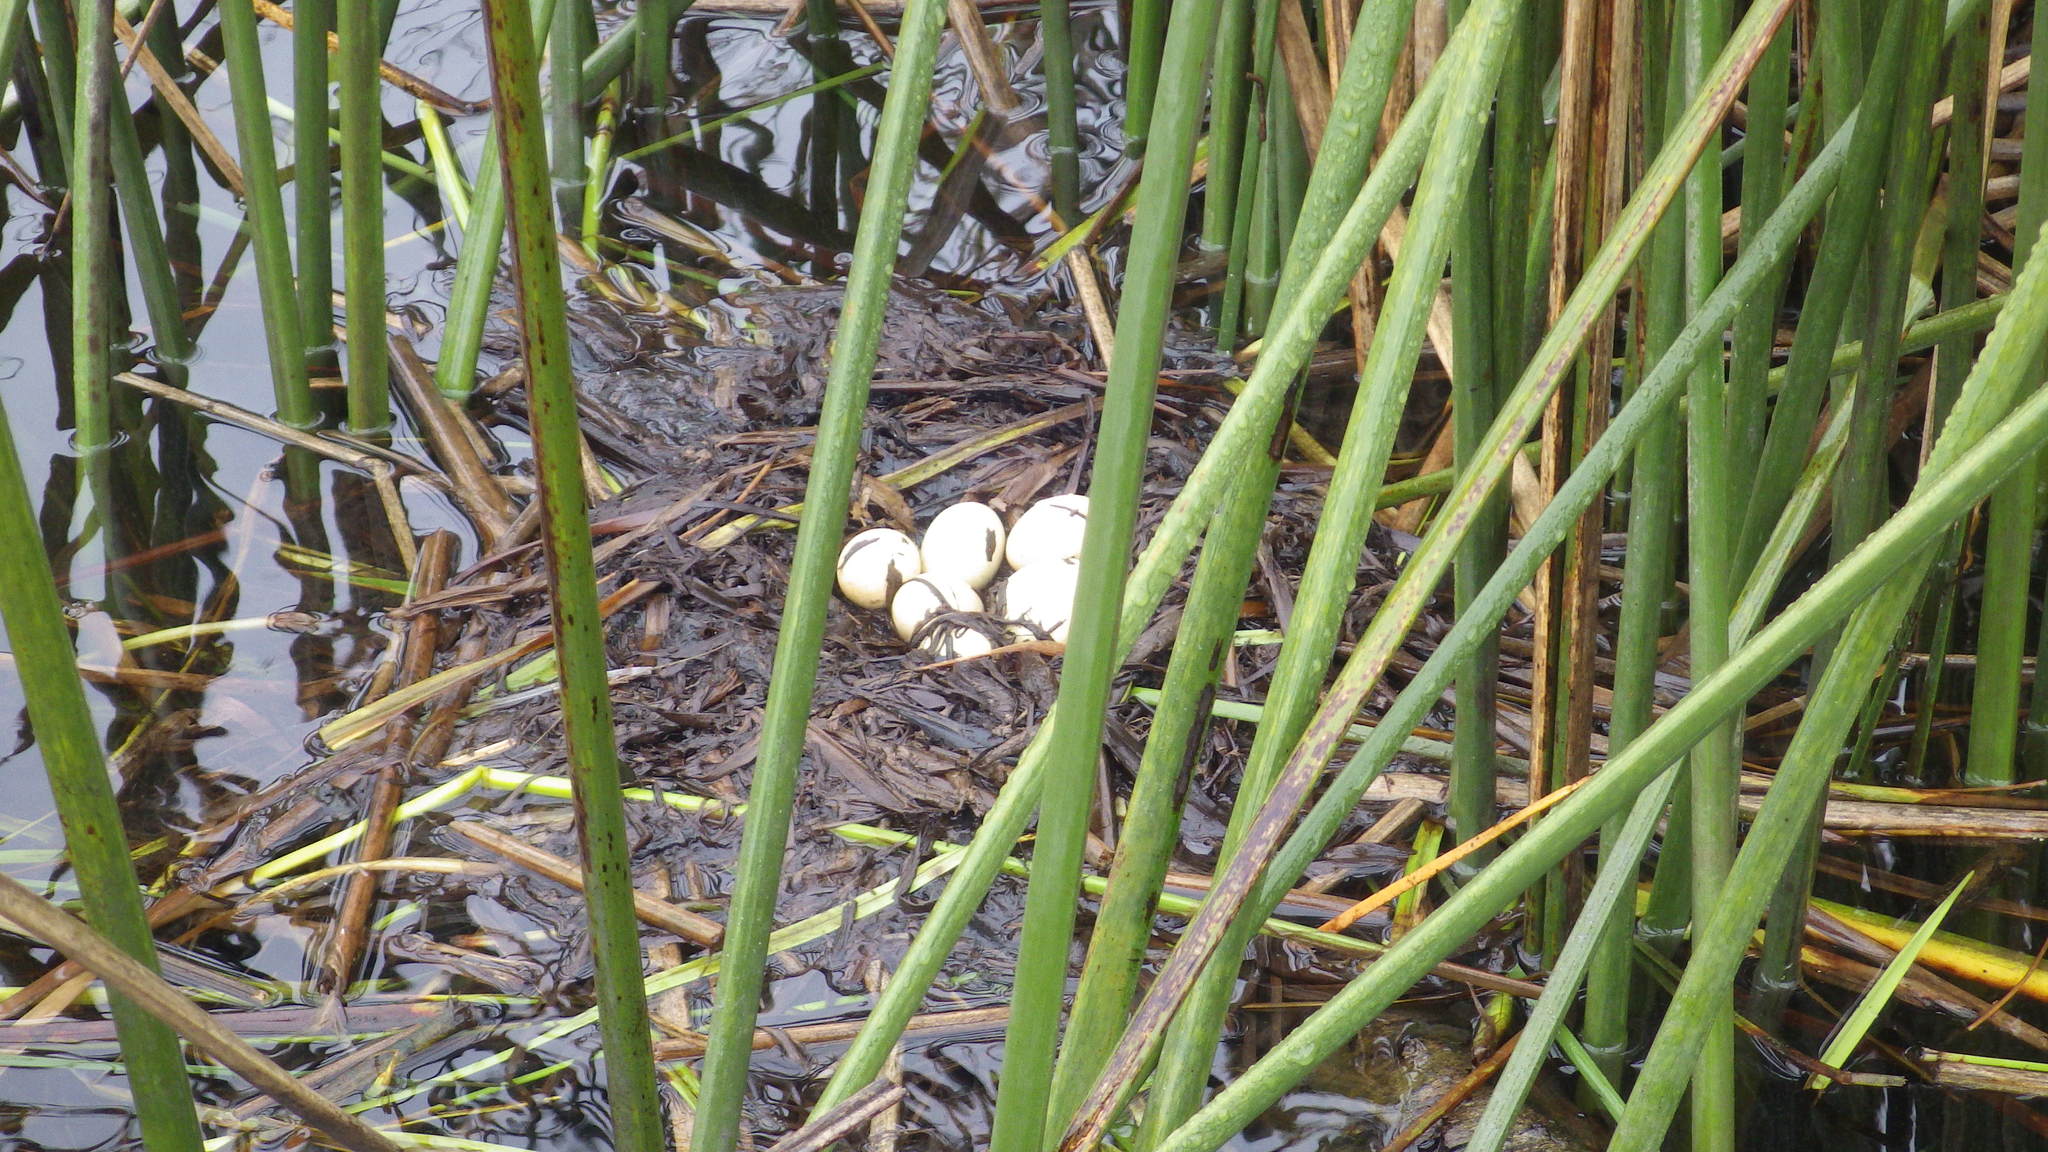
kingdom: Animalia
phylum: Chordata
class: Aves
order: Podicipediformes
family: Podicipedidae
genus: Podilymbus
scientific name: Podilymbus podiceps
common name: Pied-billed grebe
